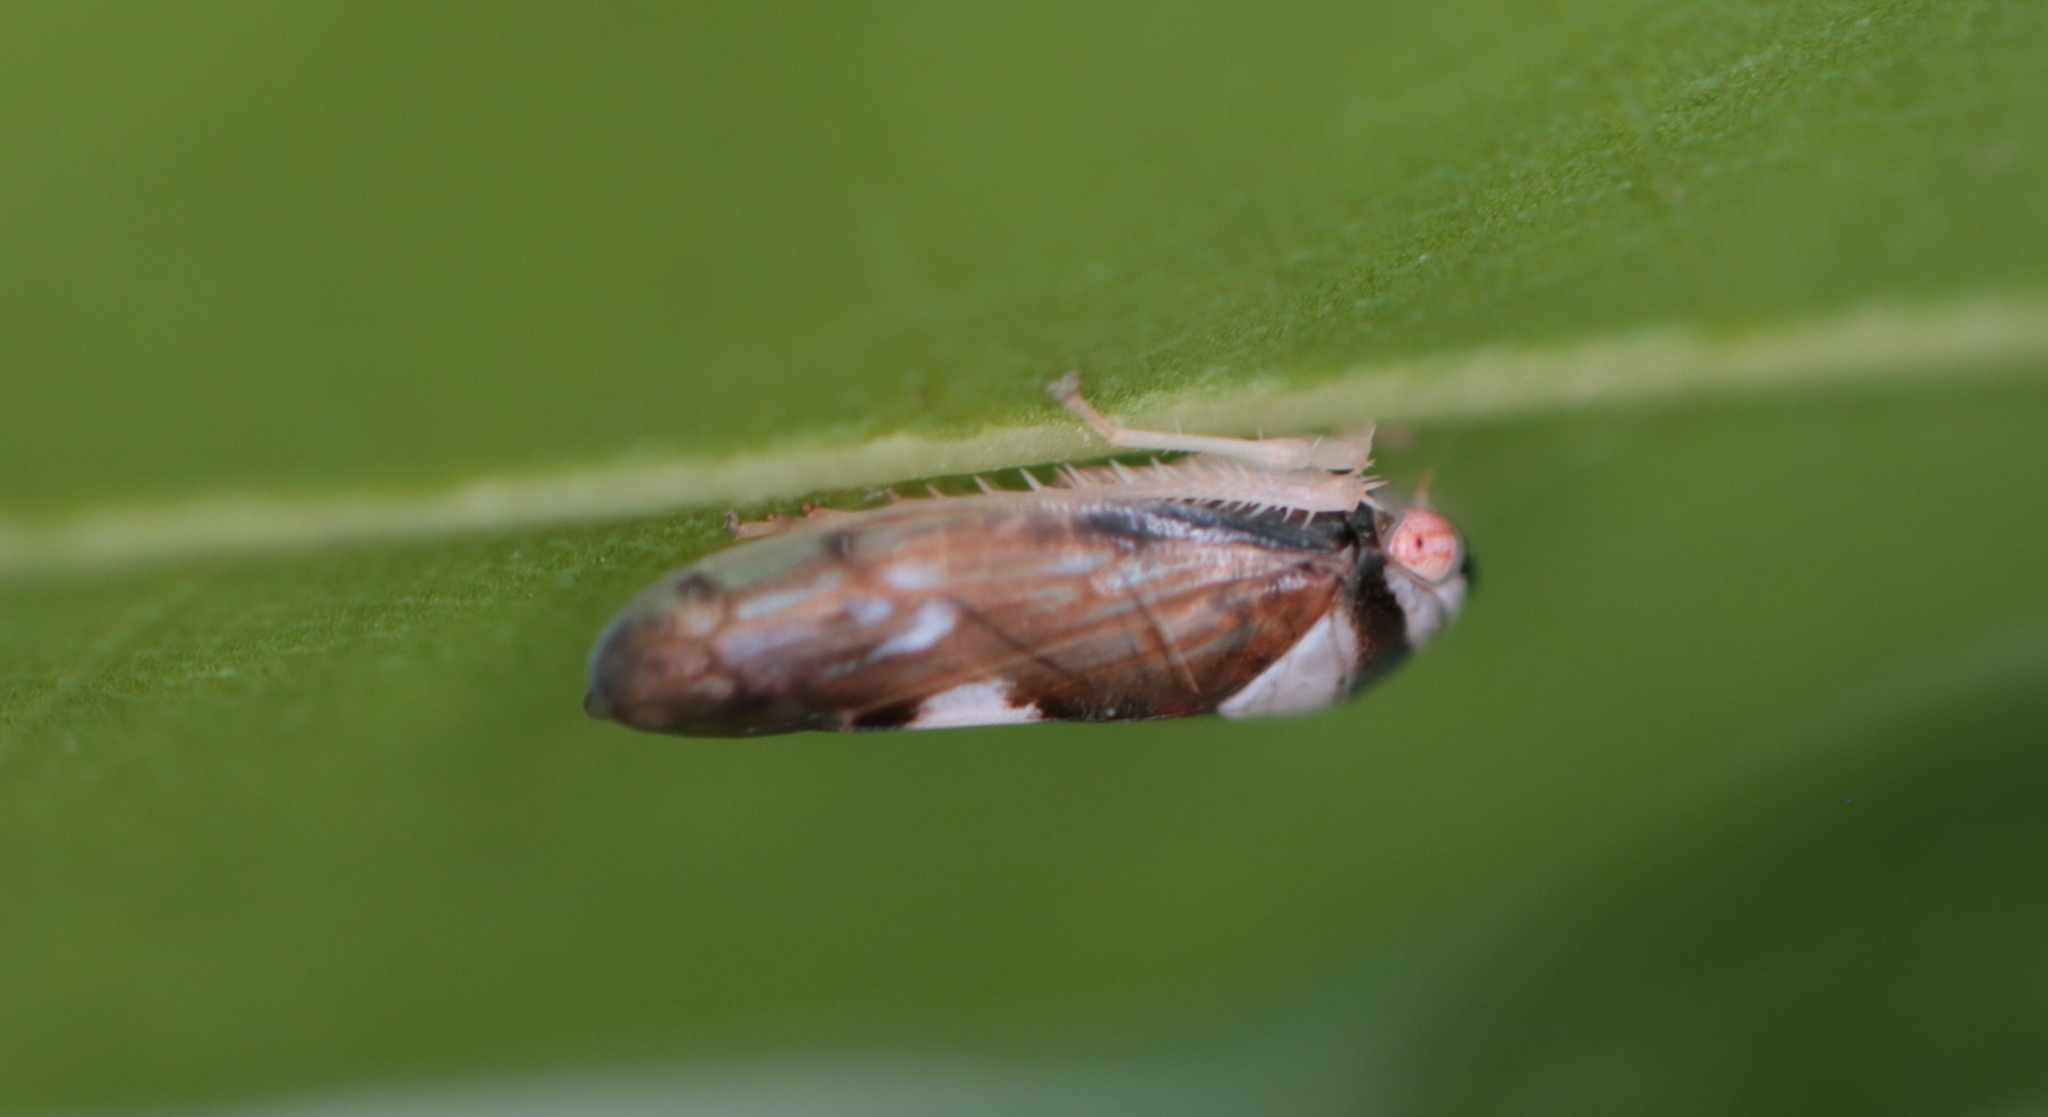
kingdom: Animalia
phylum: Arthropoda
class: Insecta
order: Hemiptera
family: Cicadellidae
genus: Eutettix
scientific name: Eutettix pictus
